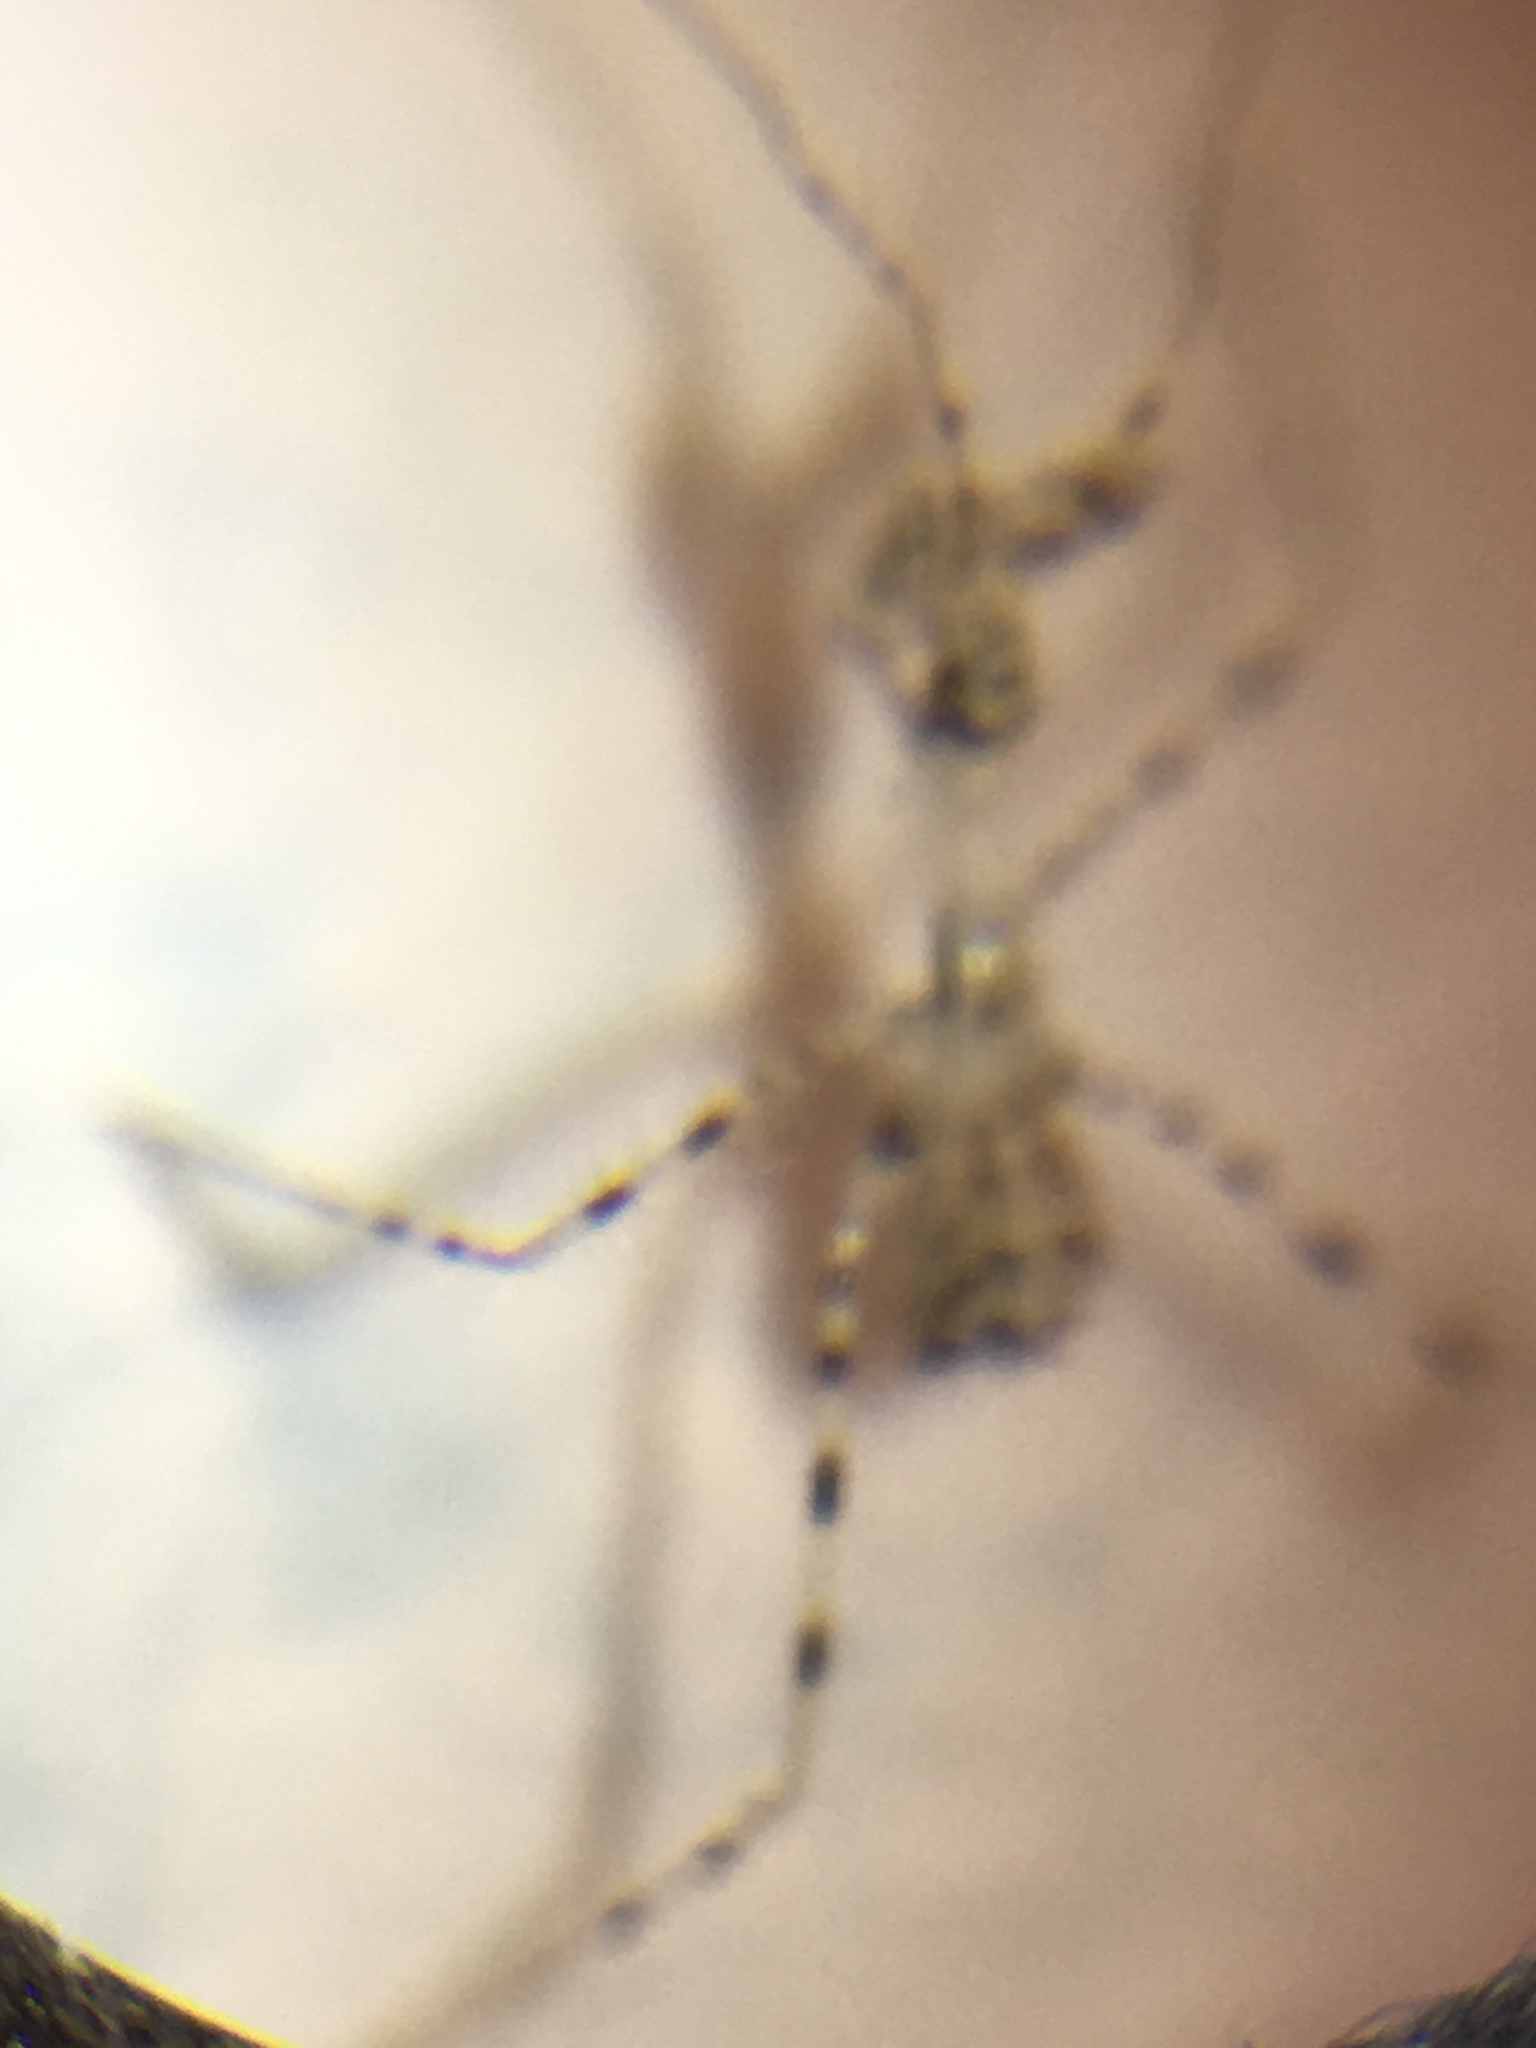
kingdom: Animalia
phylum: Arthropoda
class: Insecta
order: Hemiptera
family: Reduviidae
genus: Stenolemus
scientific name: Stenolemus fraterculus
